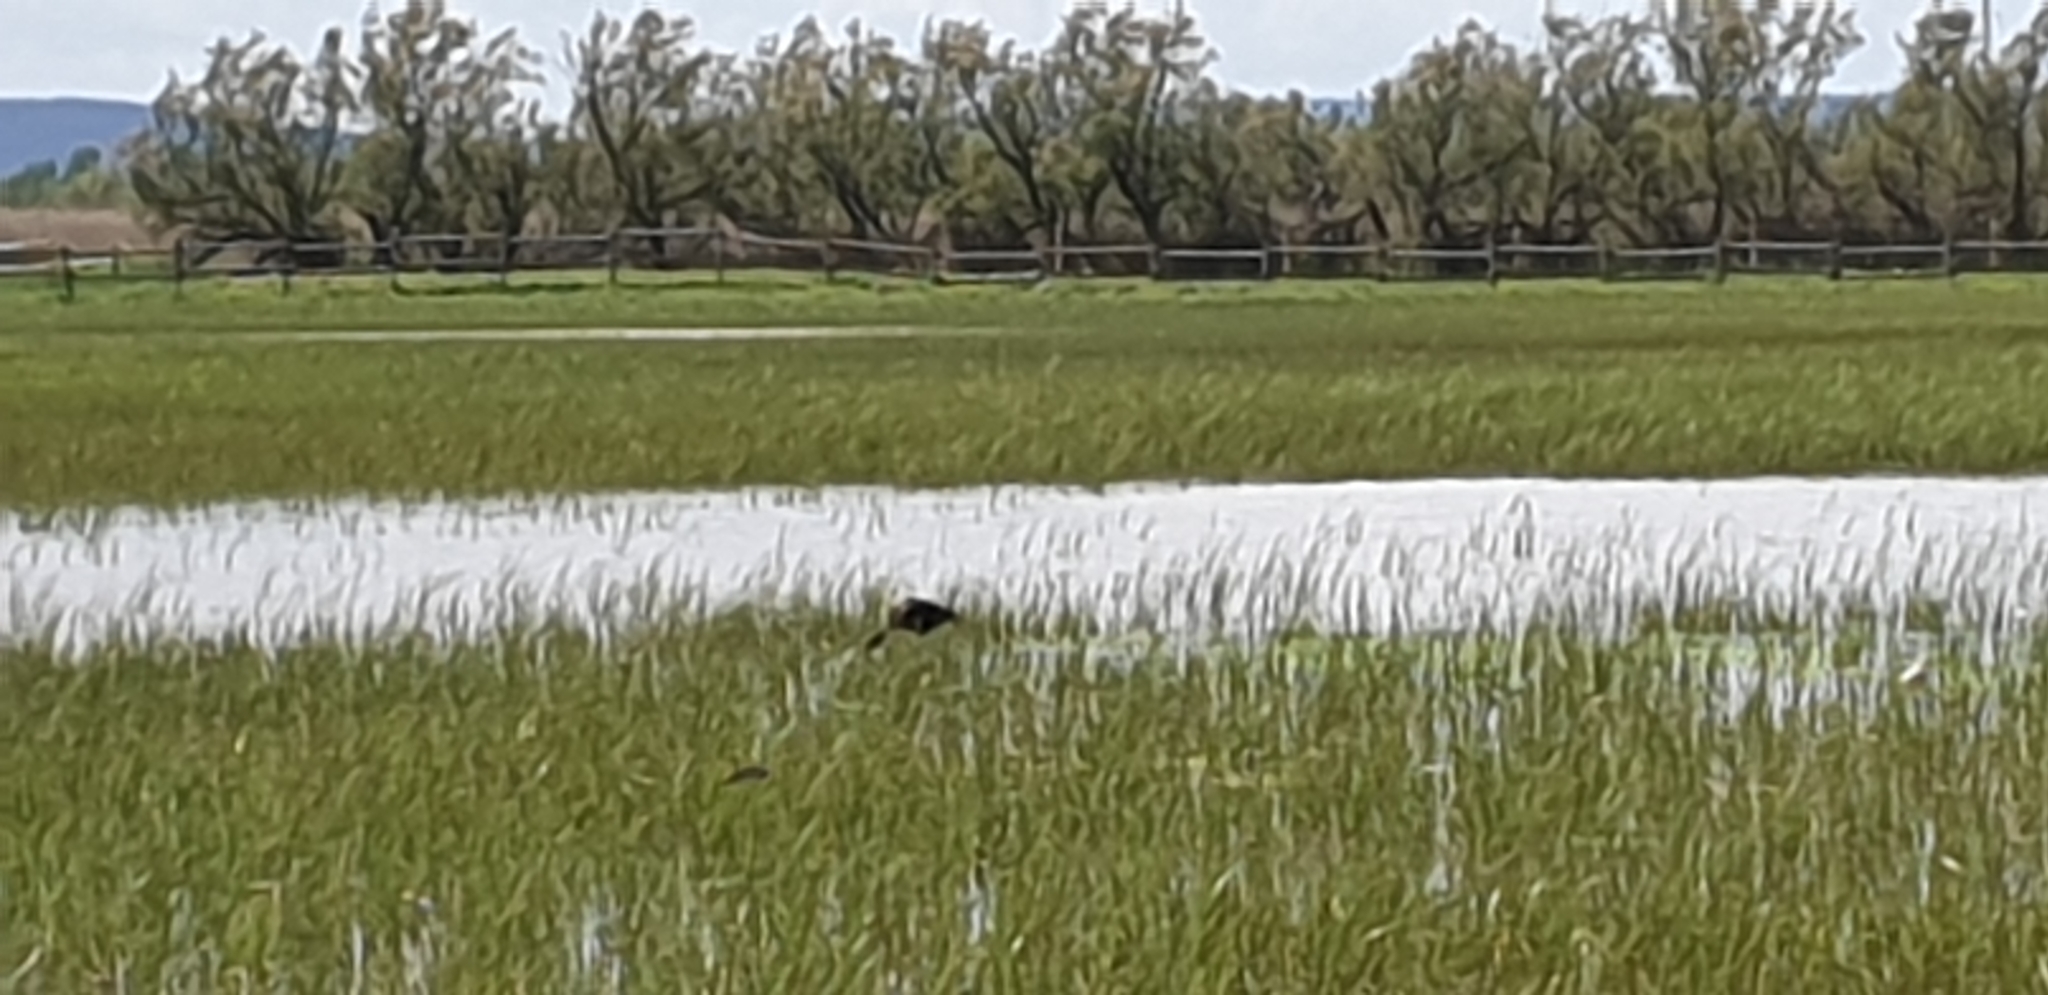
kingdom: Animalia
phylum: Chordata
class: Aves
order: Pelecaniformes
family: Threskiornithidae
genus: Plegadis
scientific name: Plegadis falcinellus
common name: Glossy ibis
